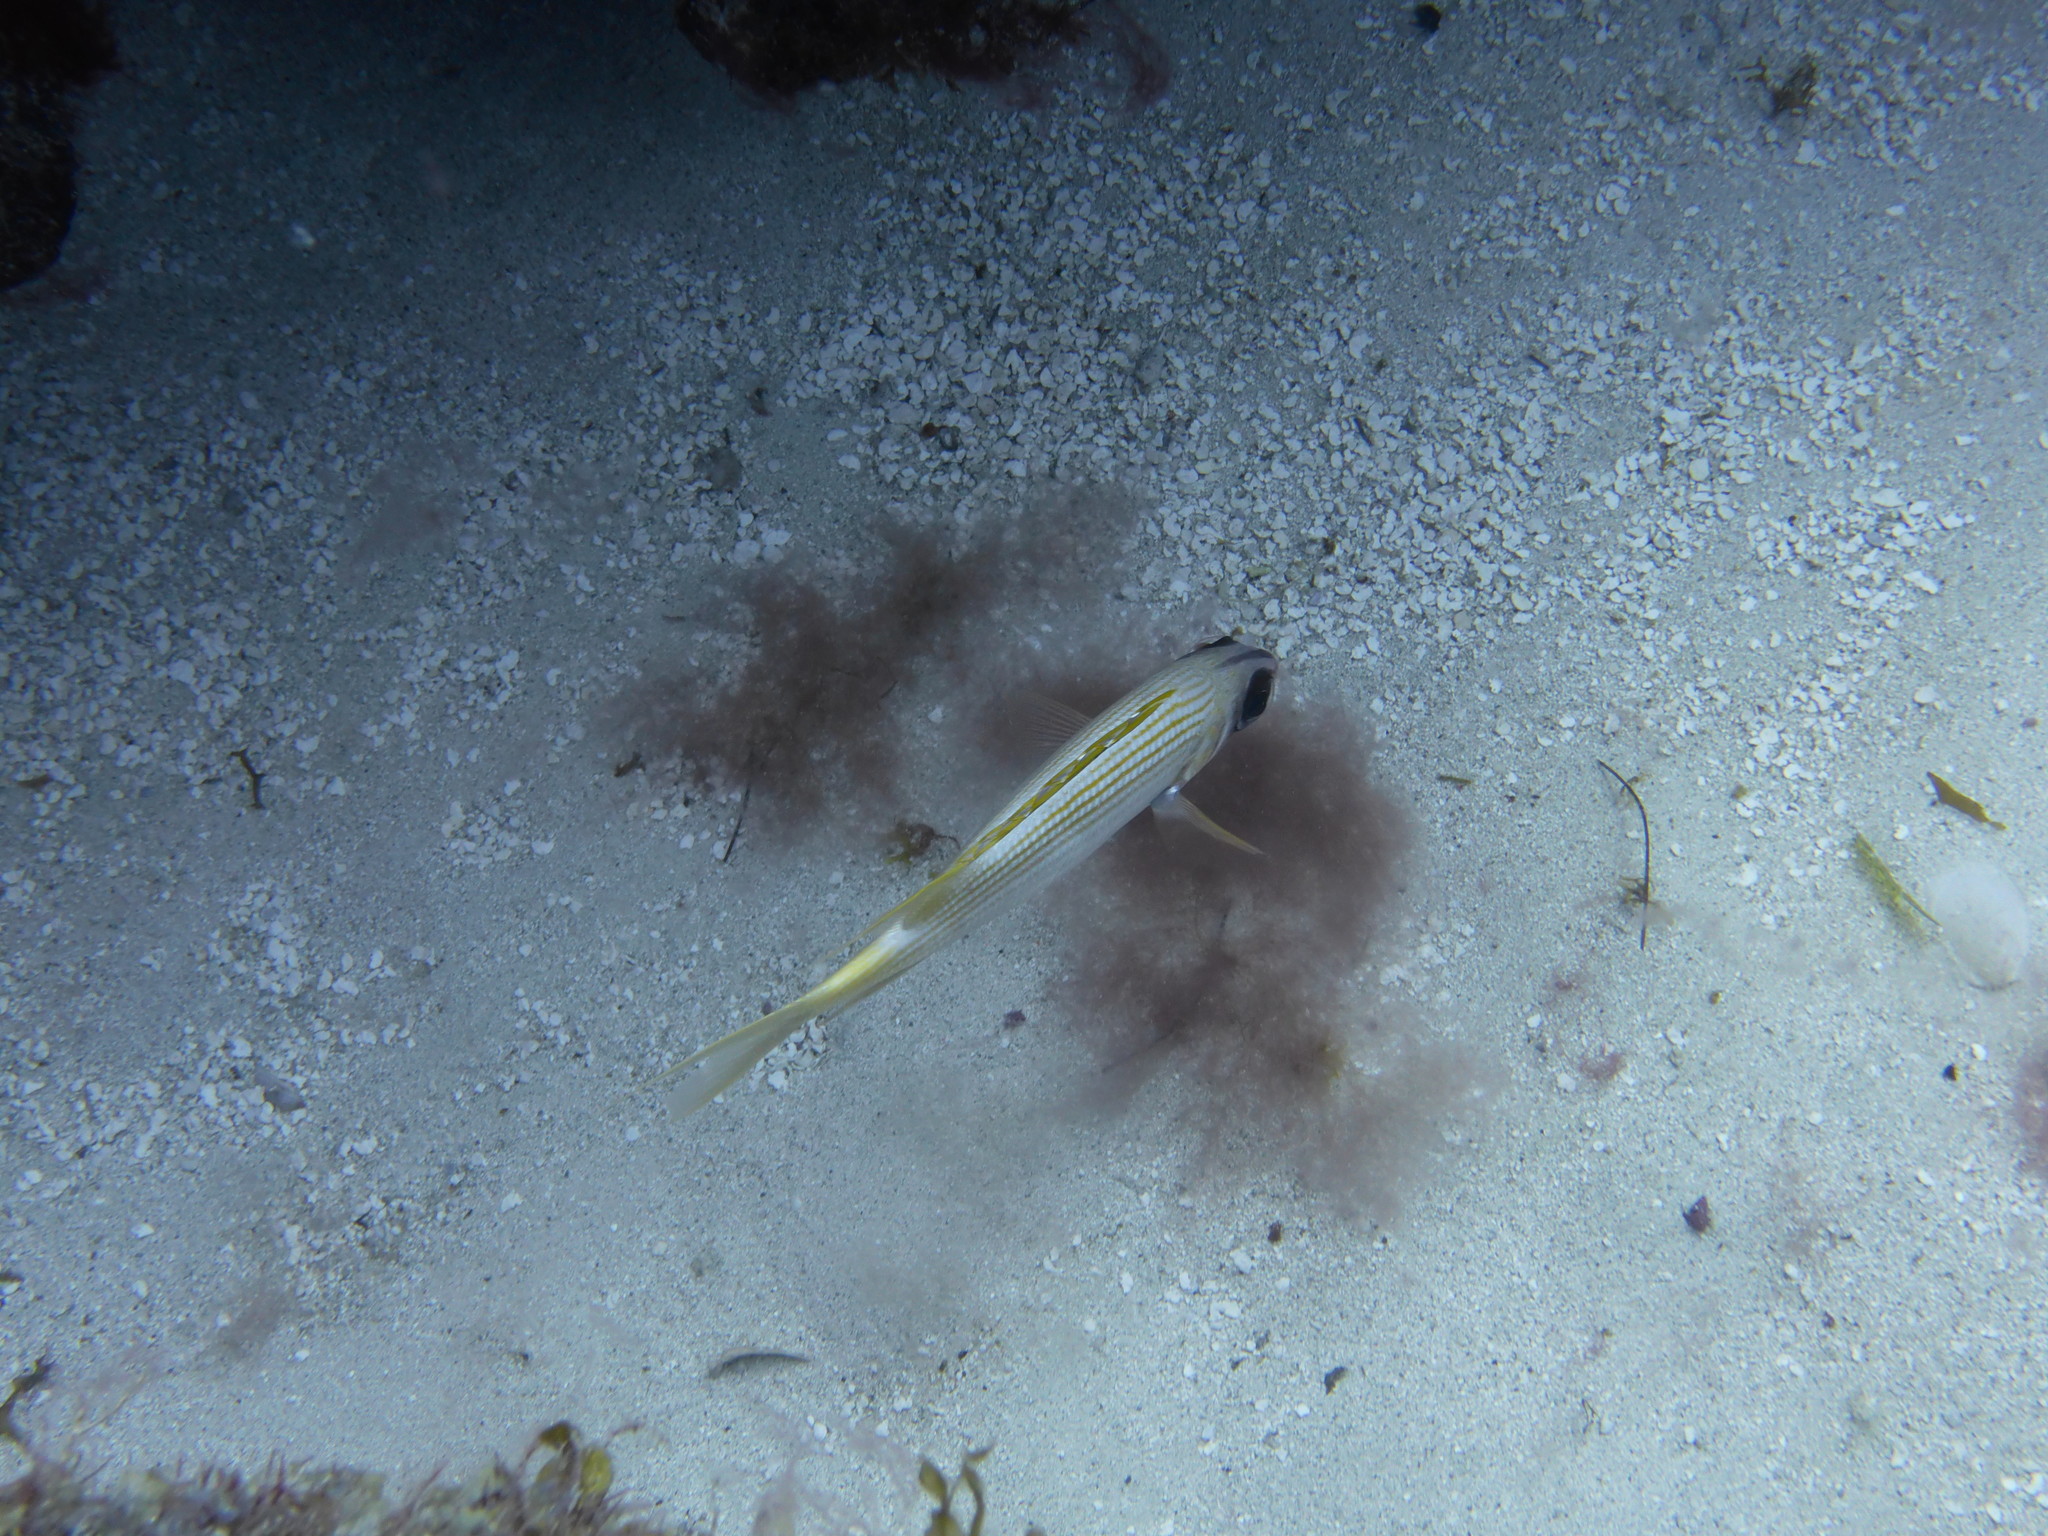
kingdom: Animalia
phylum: Chordata
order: Beryciformes
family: Holocentridae
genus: Holocentrus
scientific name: Holocentrus rufus
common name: Longspine squirrelfish
